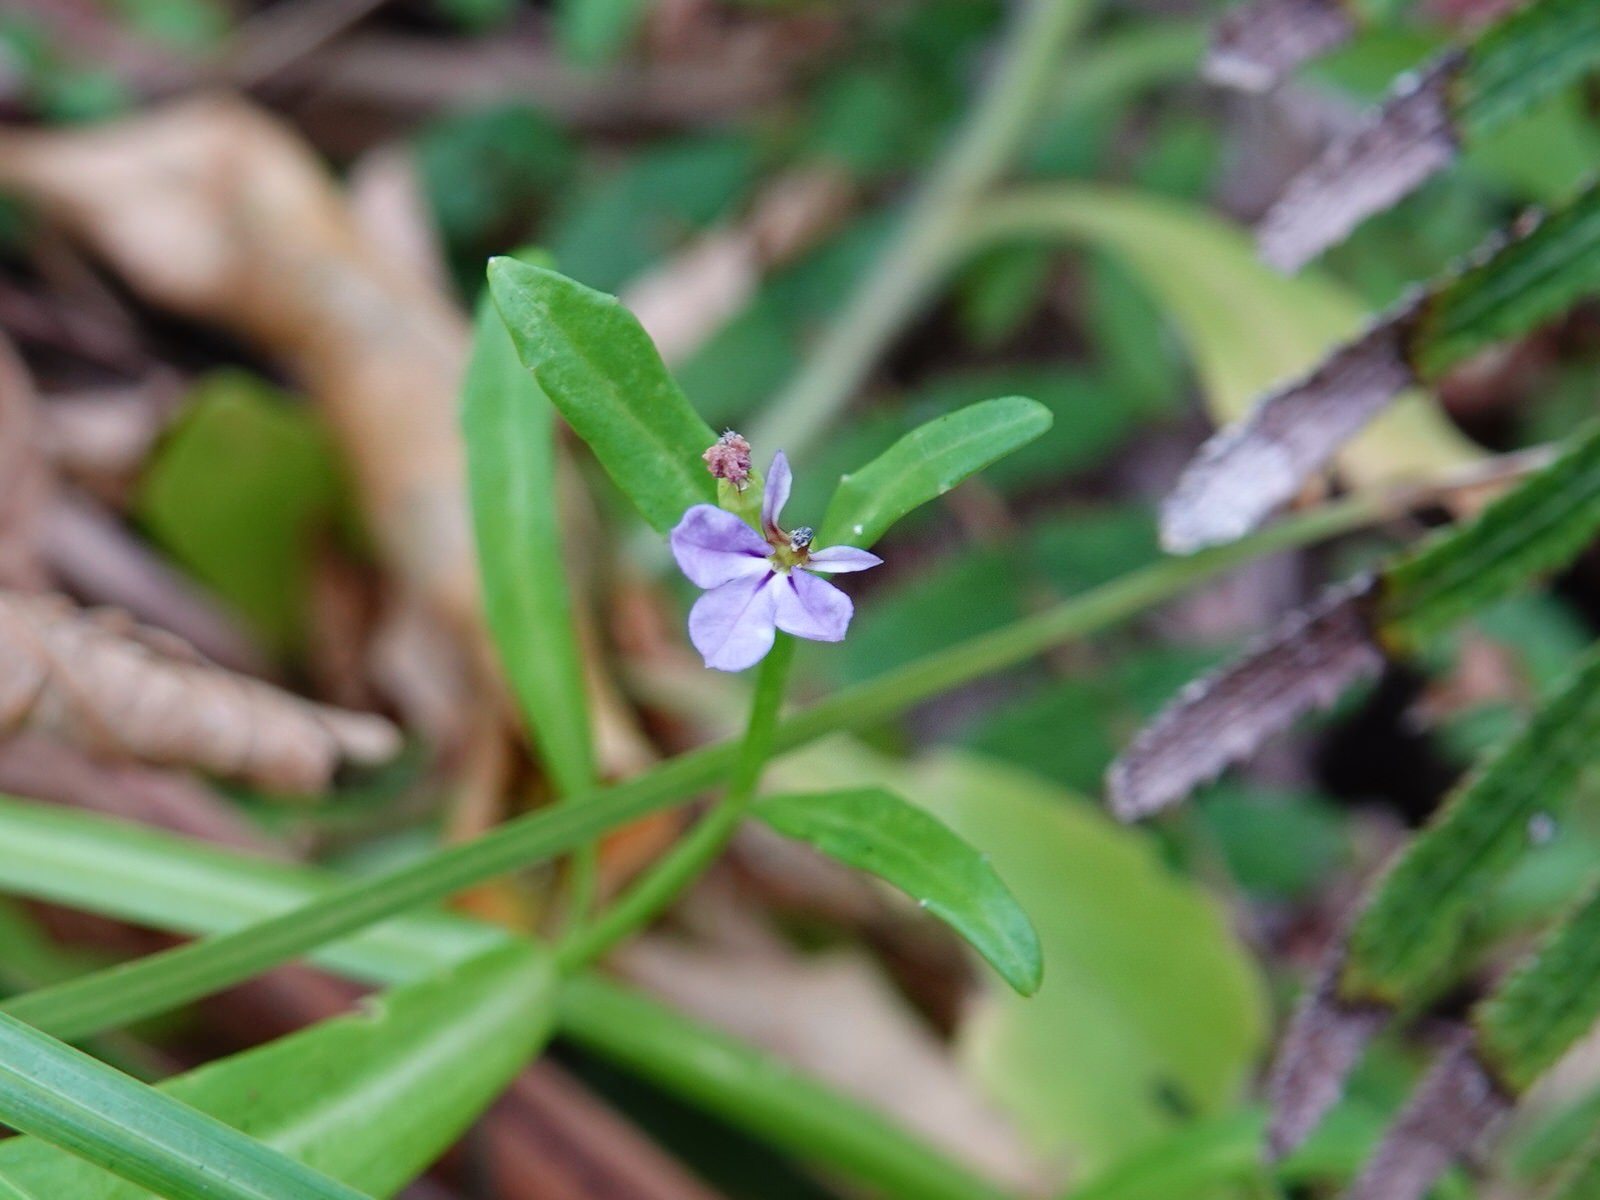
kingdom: Plantae
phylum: Tracheophyta
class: Magnoliopsida
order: Asterales
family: Campanulaceae
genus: Lobelia
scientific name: Lobelia anceps
